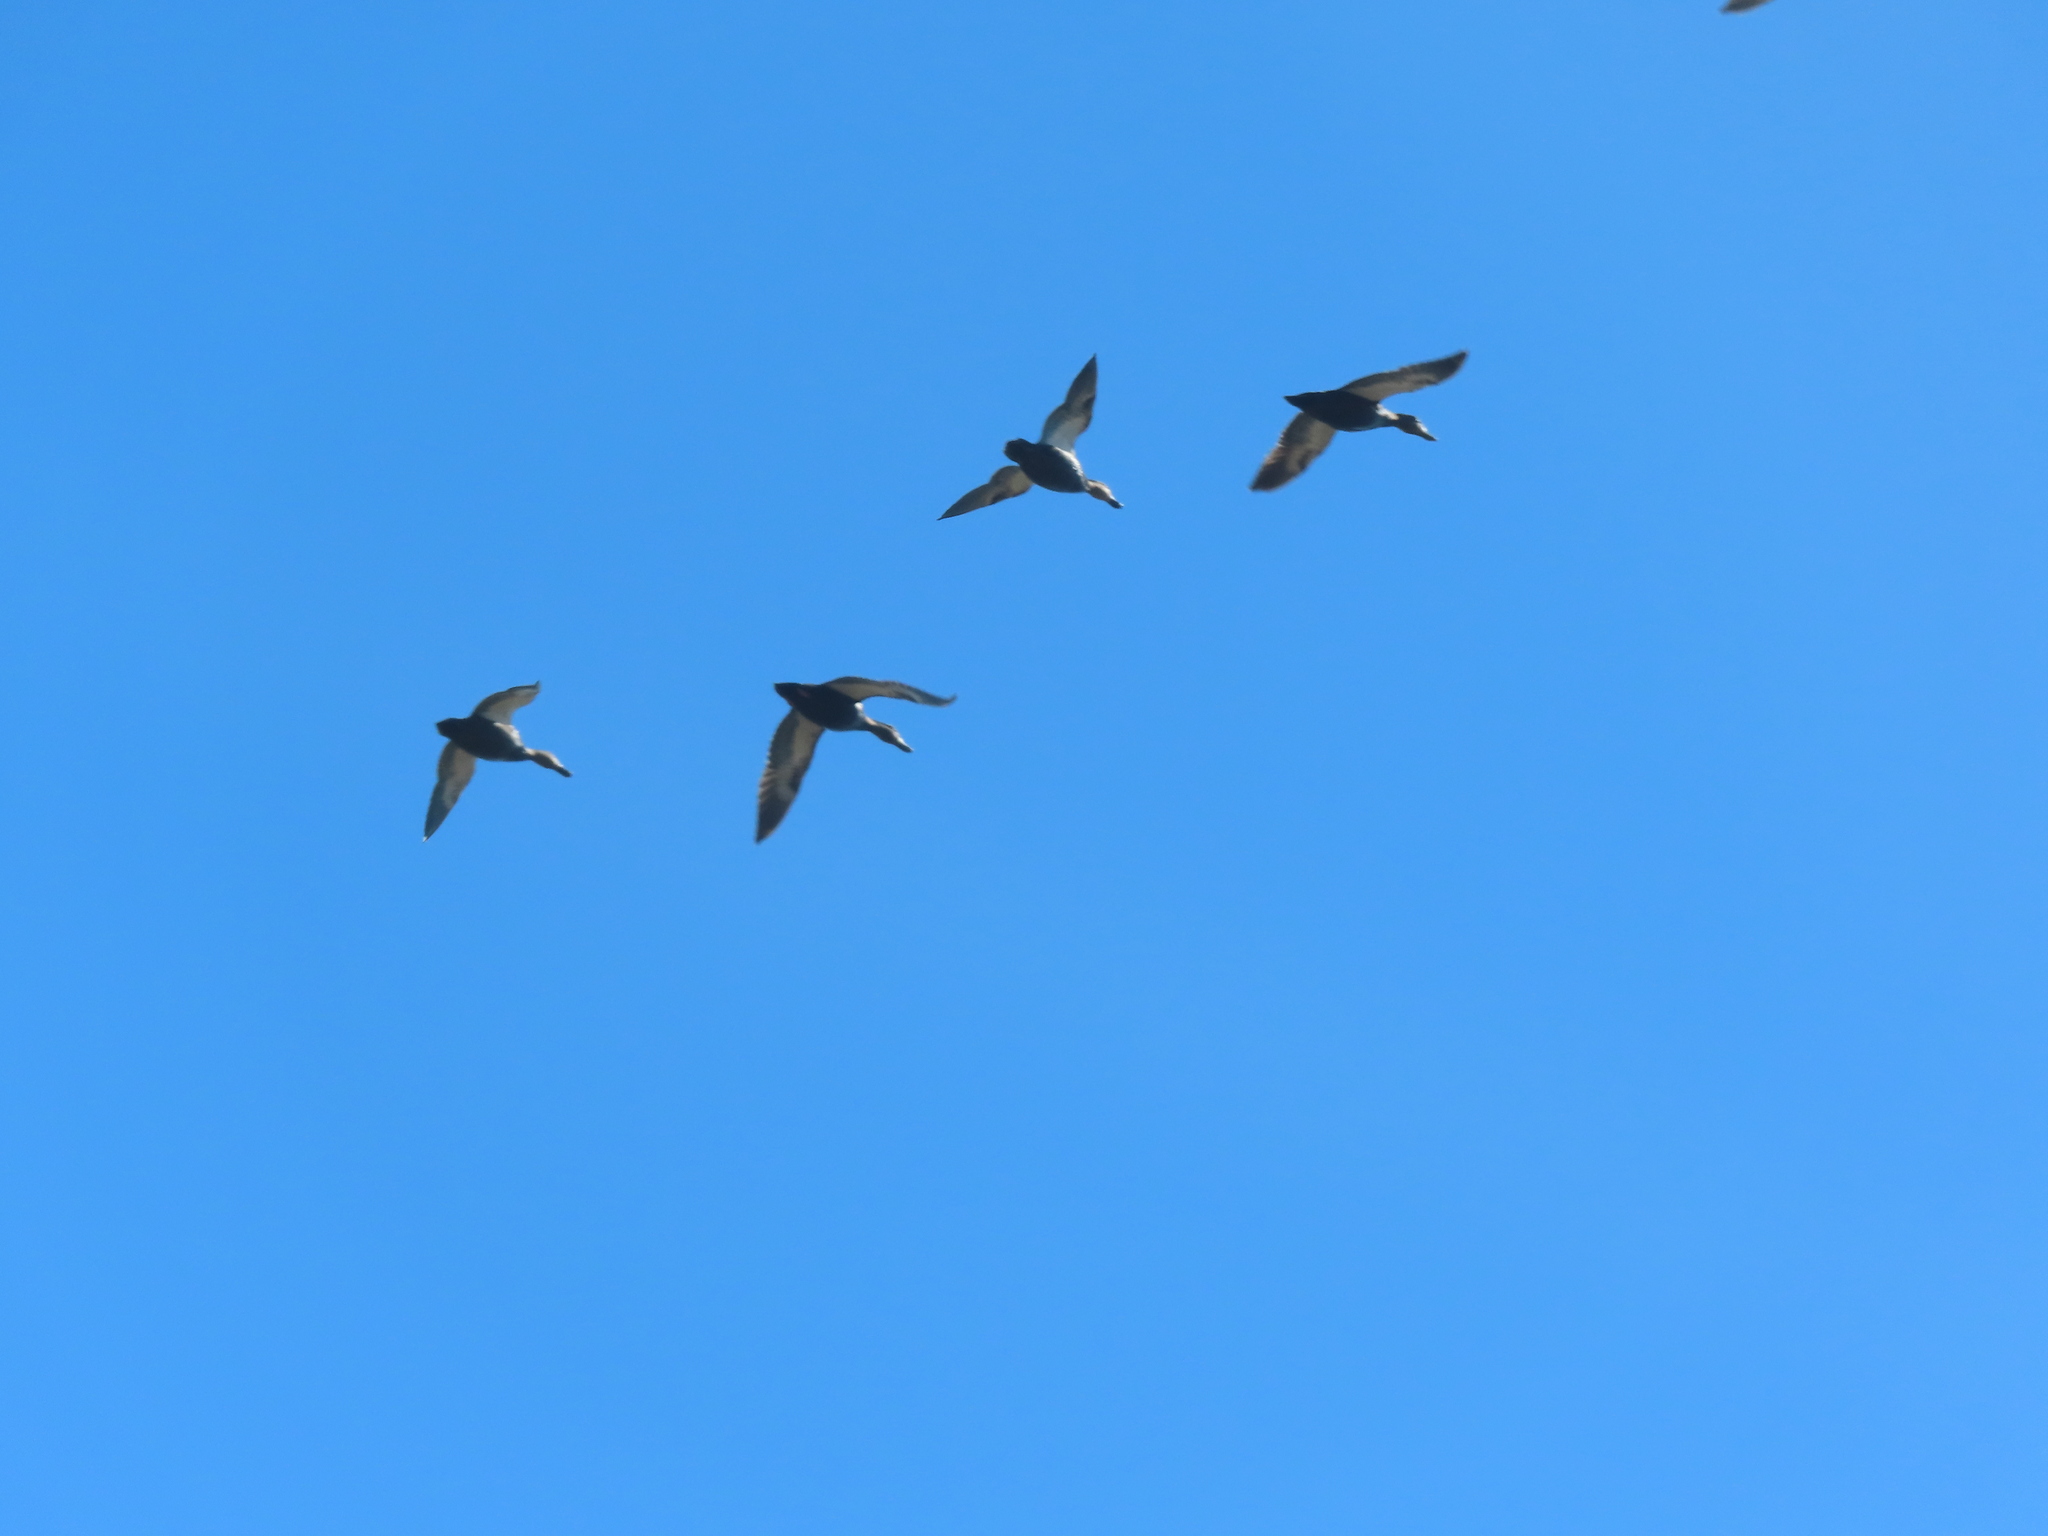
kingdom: Animalia
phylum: Chordata
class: Aves
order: Anseriformes
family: Anatidae
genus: Anas
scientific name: Anas rubripes
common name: American black duck
